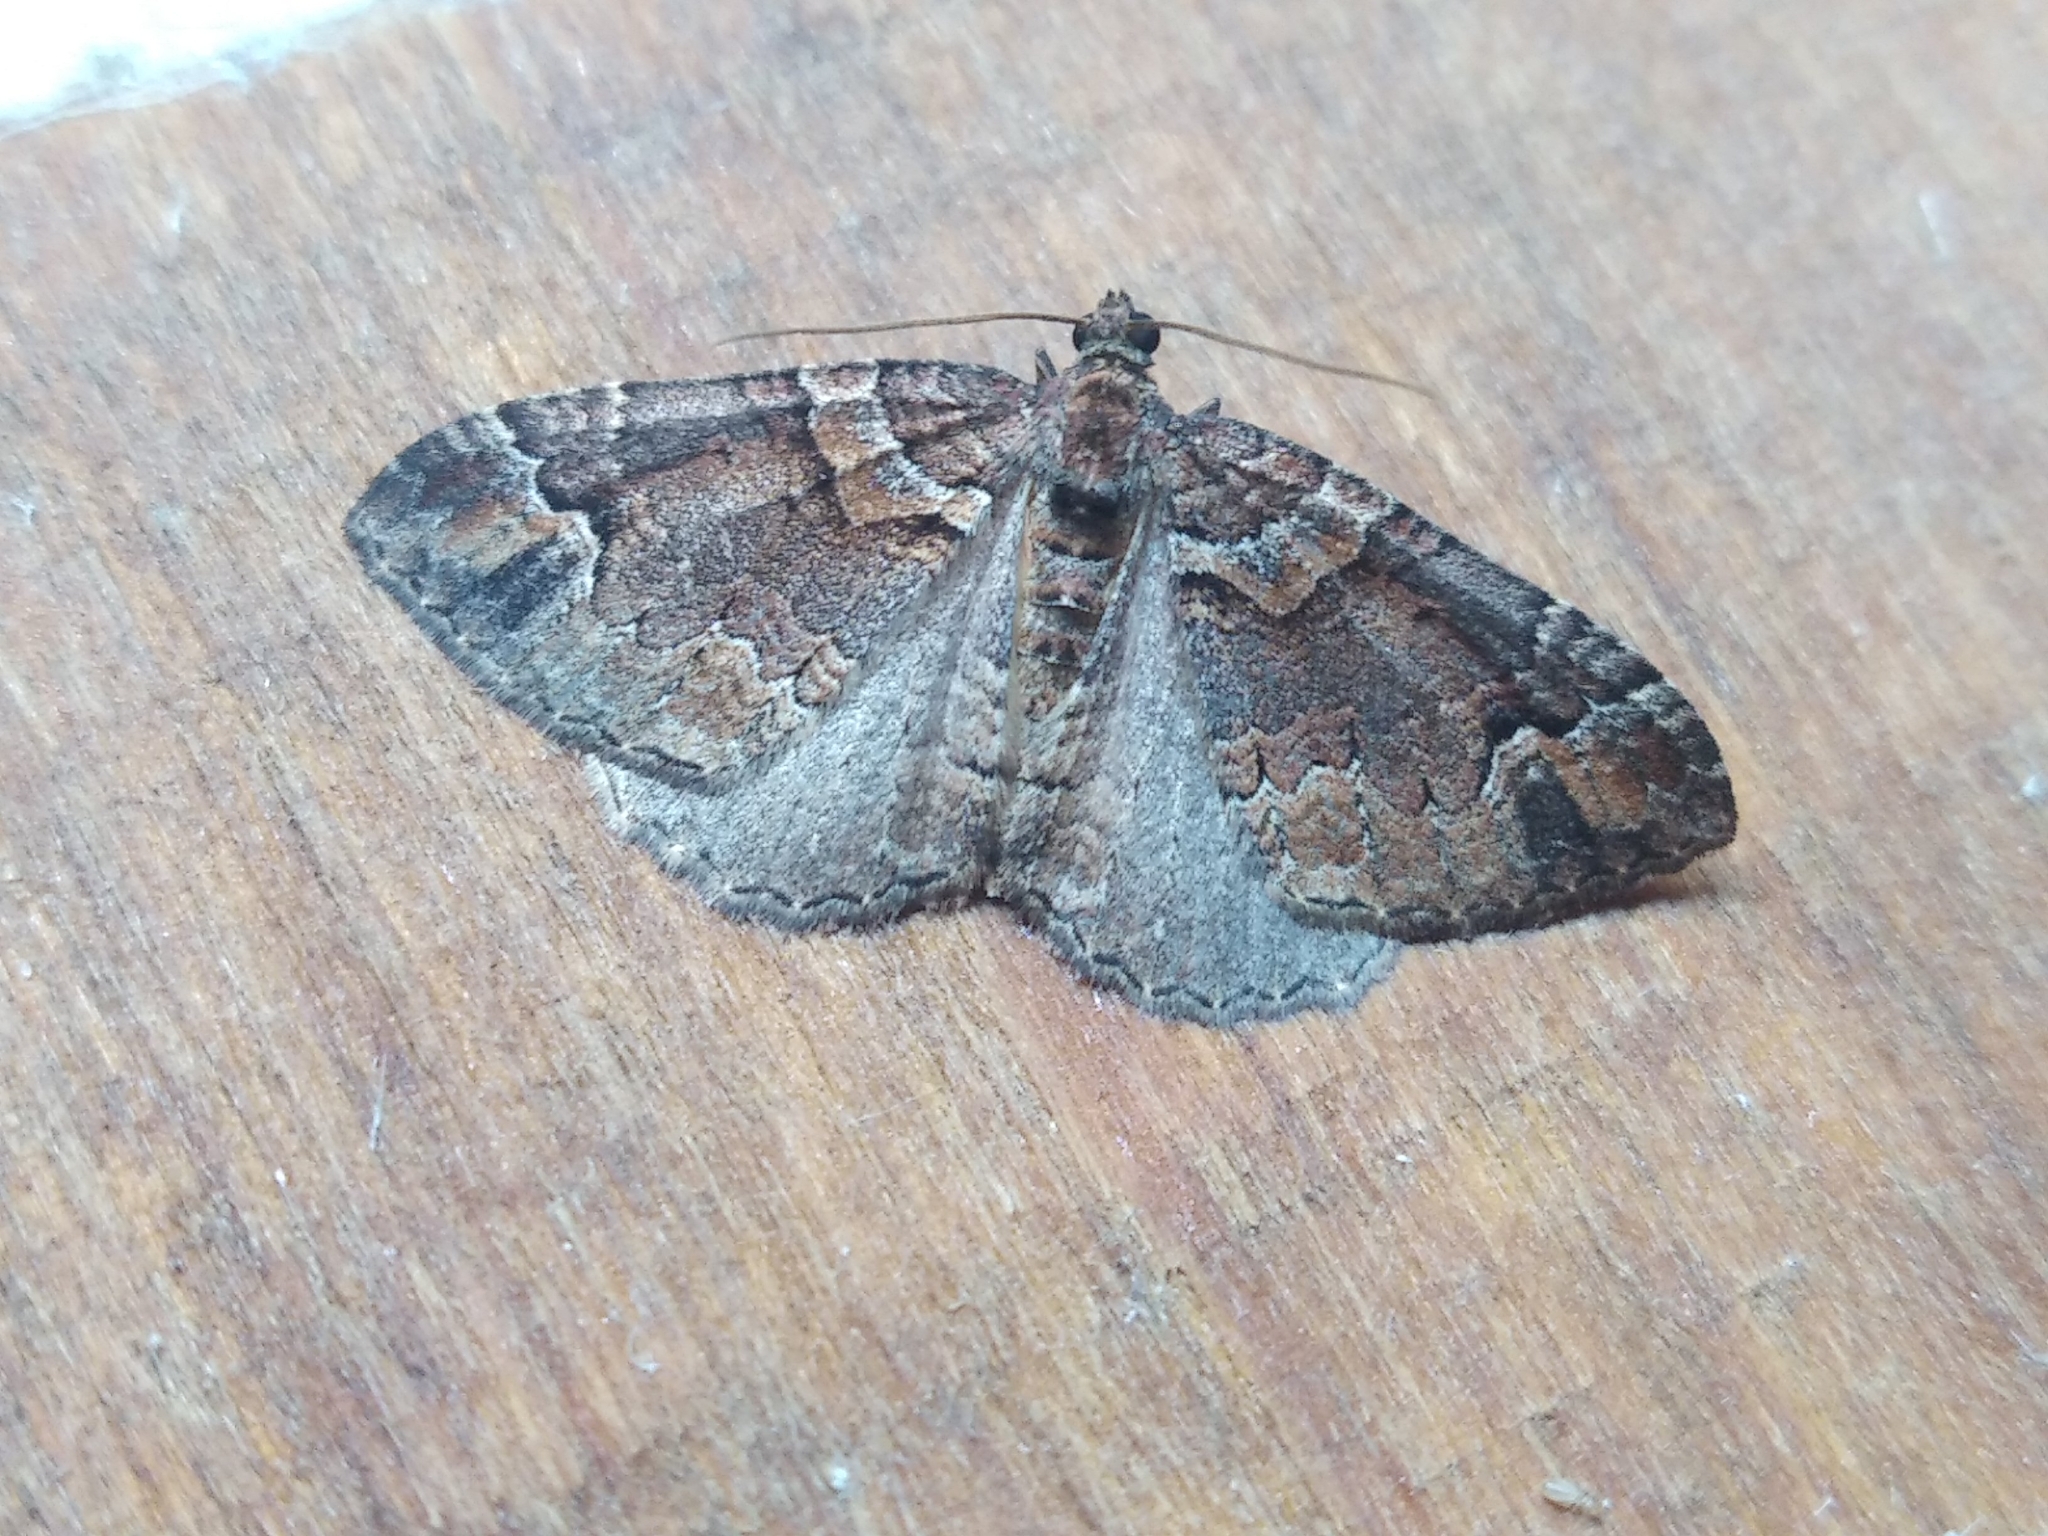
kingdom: Animalia
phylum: Arthropoda
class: Insecta
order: Lepidoptera
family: Geometridae
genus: Catarhoe
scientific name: Catarhoe basochesiata
